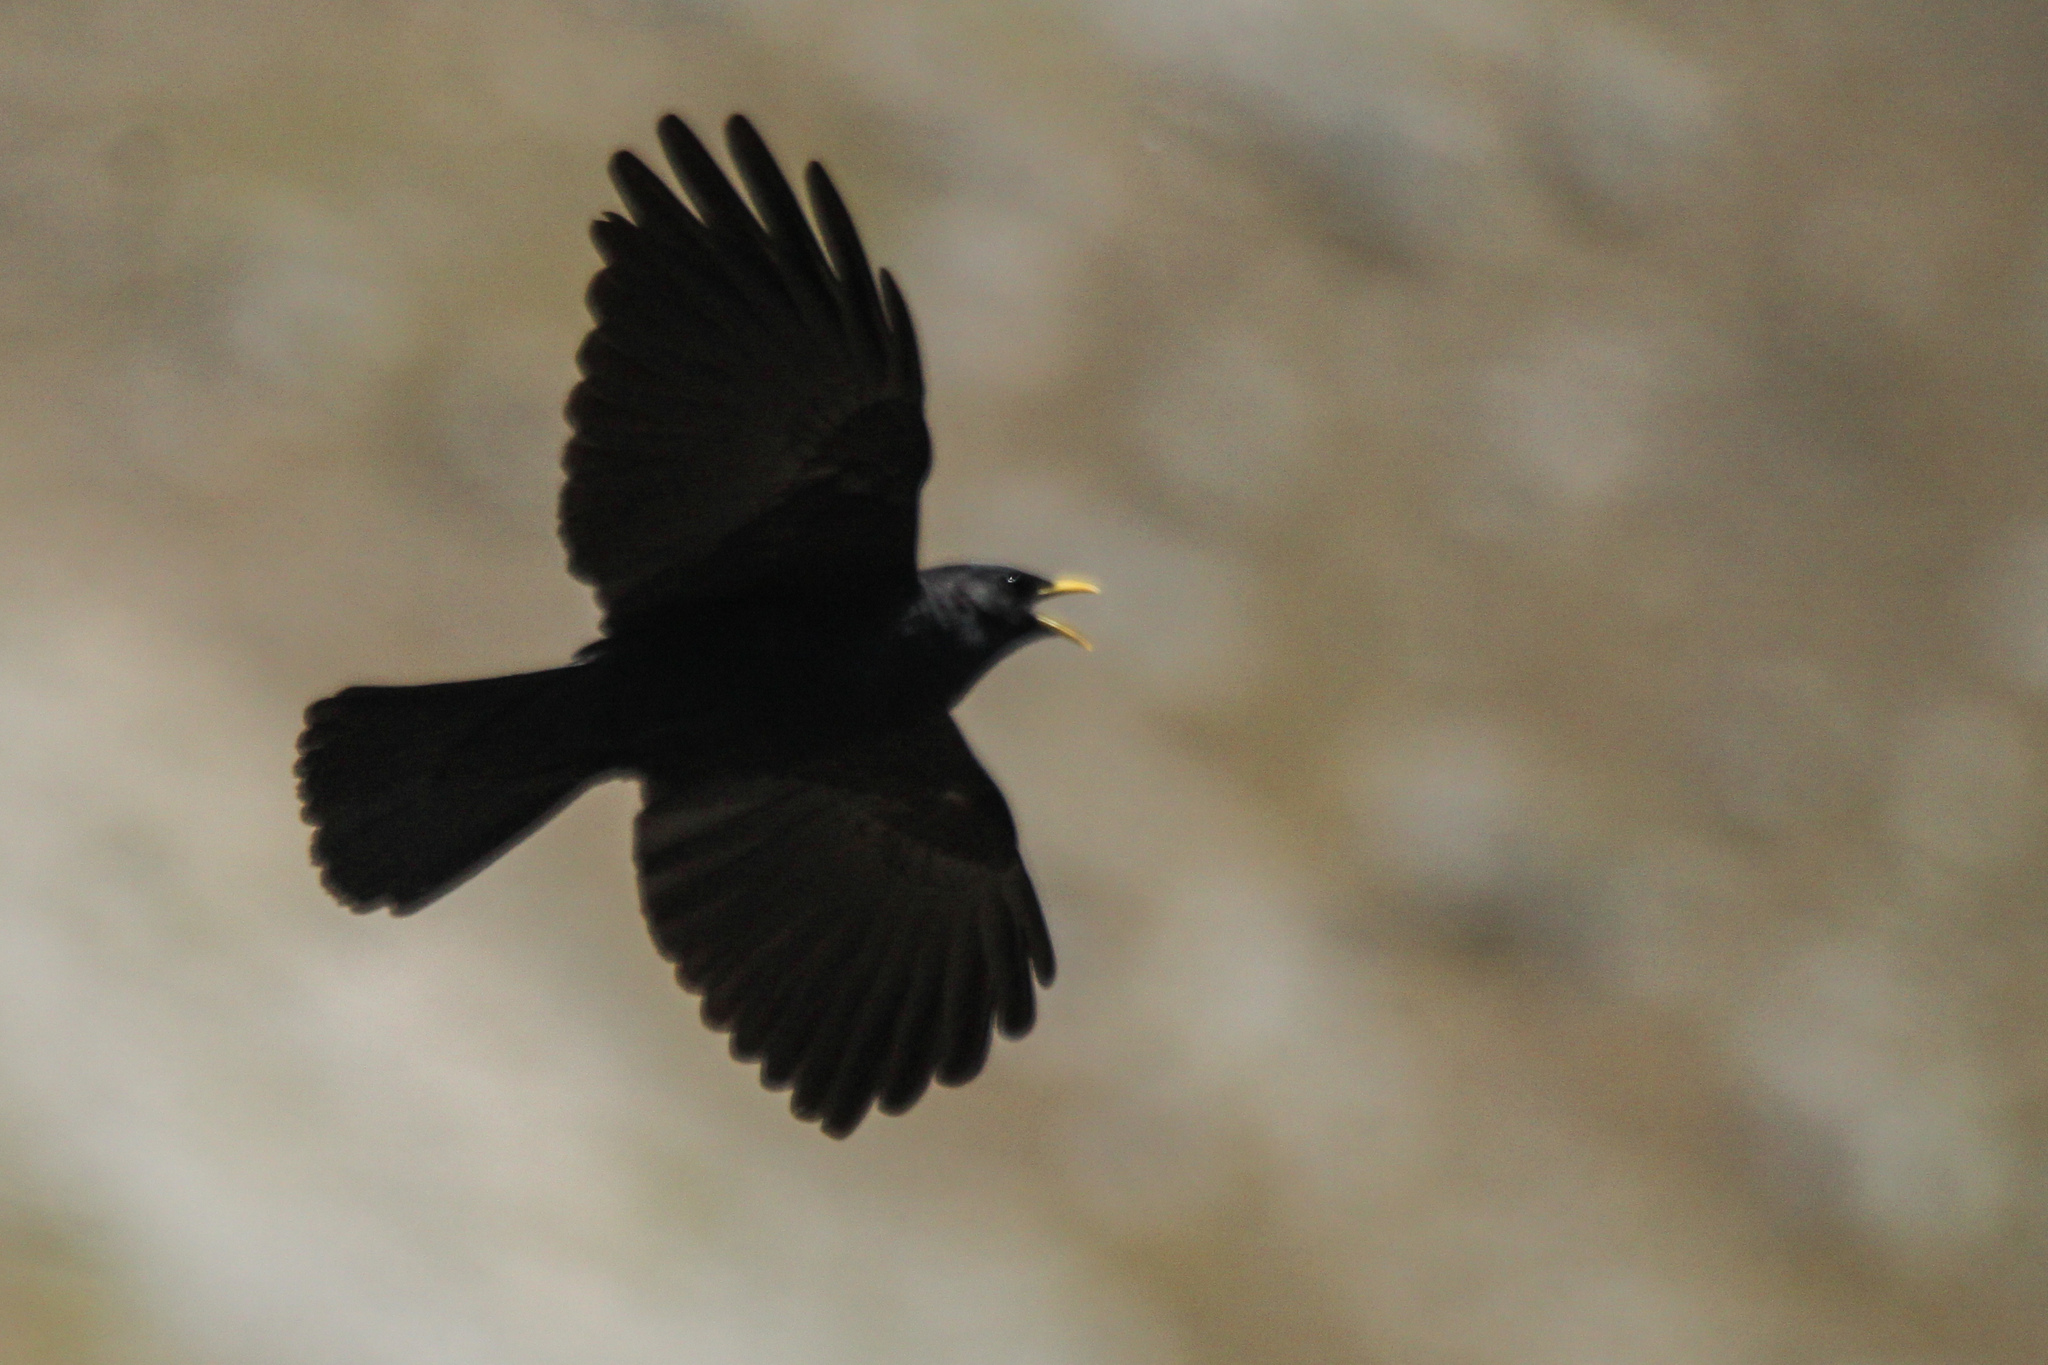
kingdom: Animalia
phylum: Chordata
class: Aves
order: Passeriformes
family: Corvidae
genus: Pyrrhocorax
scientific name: Pyrrhocorax graculus
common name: Alpine chough
